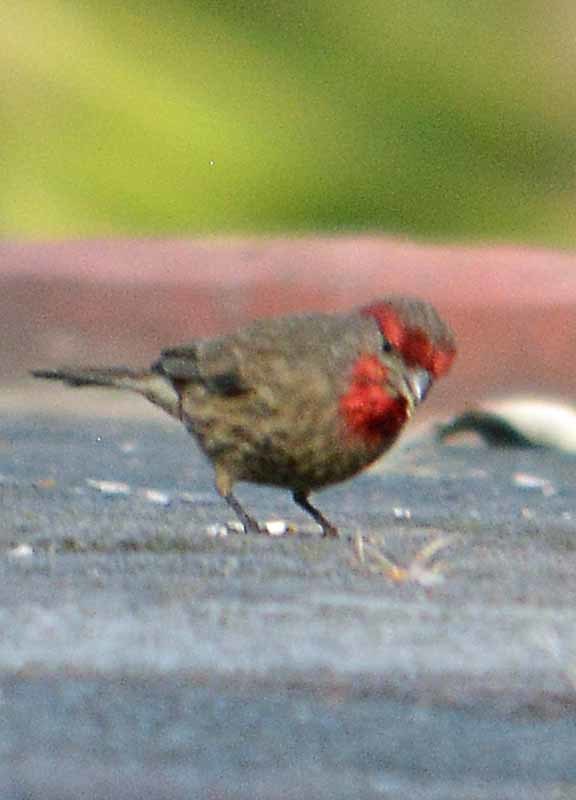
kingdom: Animalia
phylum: Chordata
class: Aves
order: Passeriformes
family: Fringillidae
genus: Haemorhous
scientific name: Haemorhous mexicanus
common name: House finch
